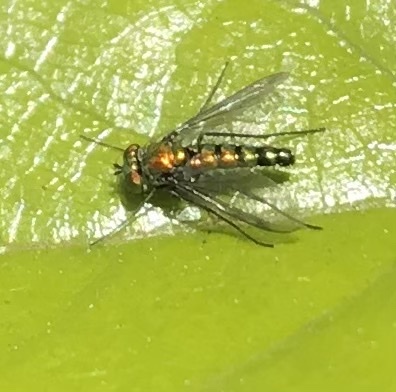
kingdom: Animalia
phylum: Arthropoda
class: Insecta
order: Diptera
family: Dolichopodidae
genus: Condylostylus
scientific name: Condylostylus longicornis
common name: Long-legged fly
